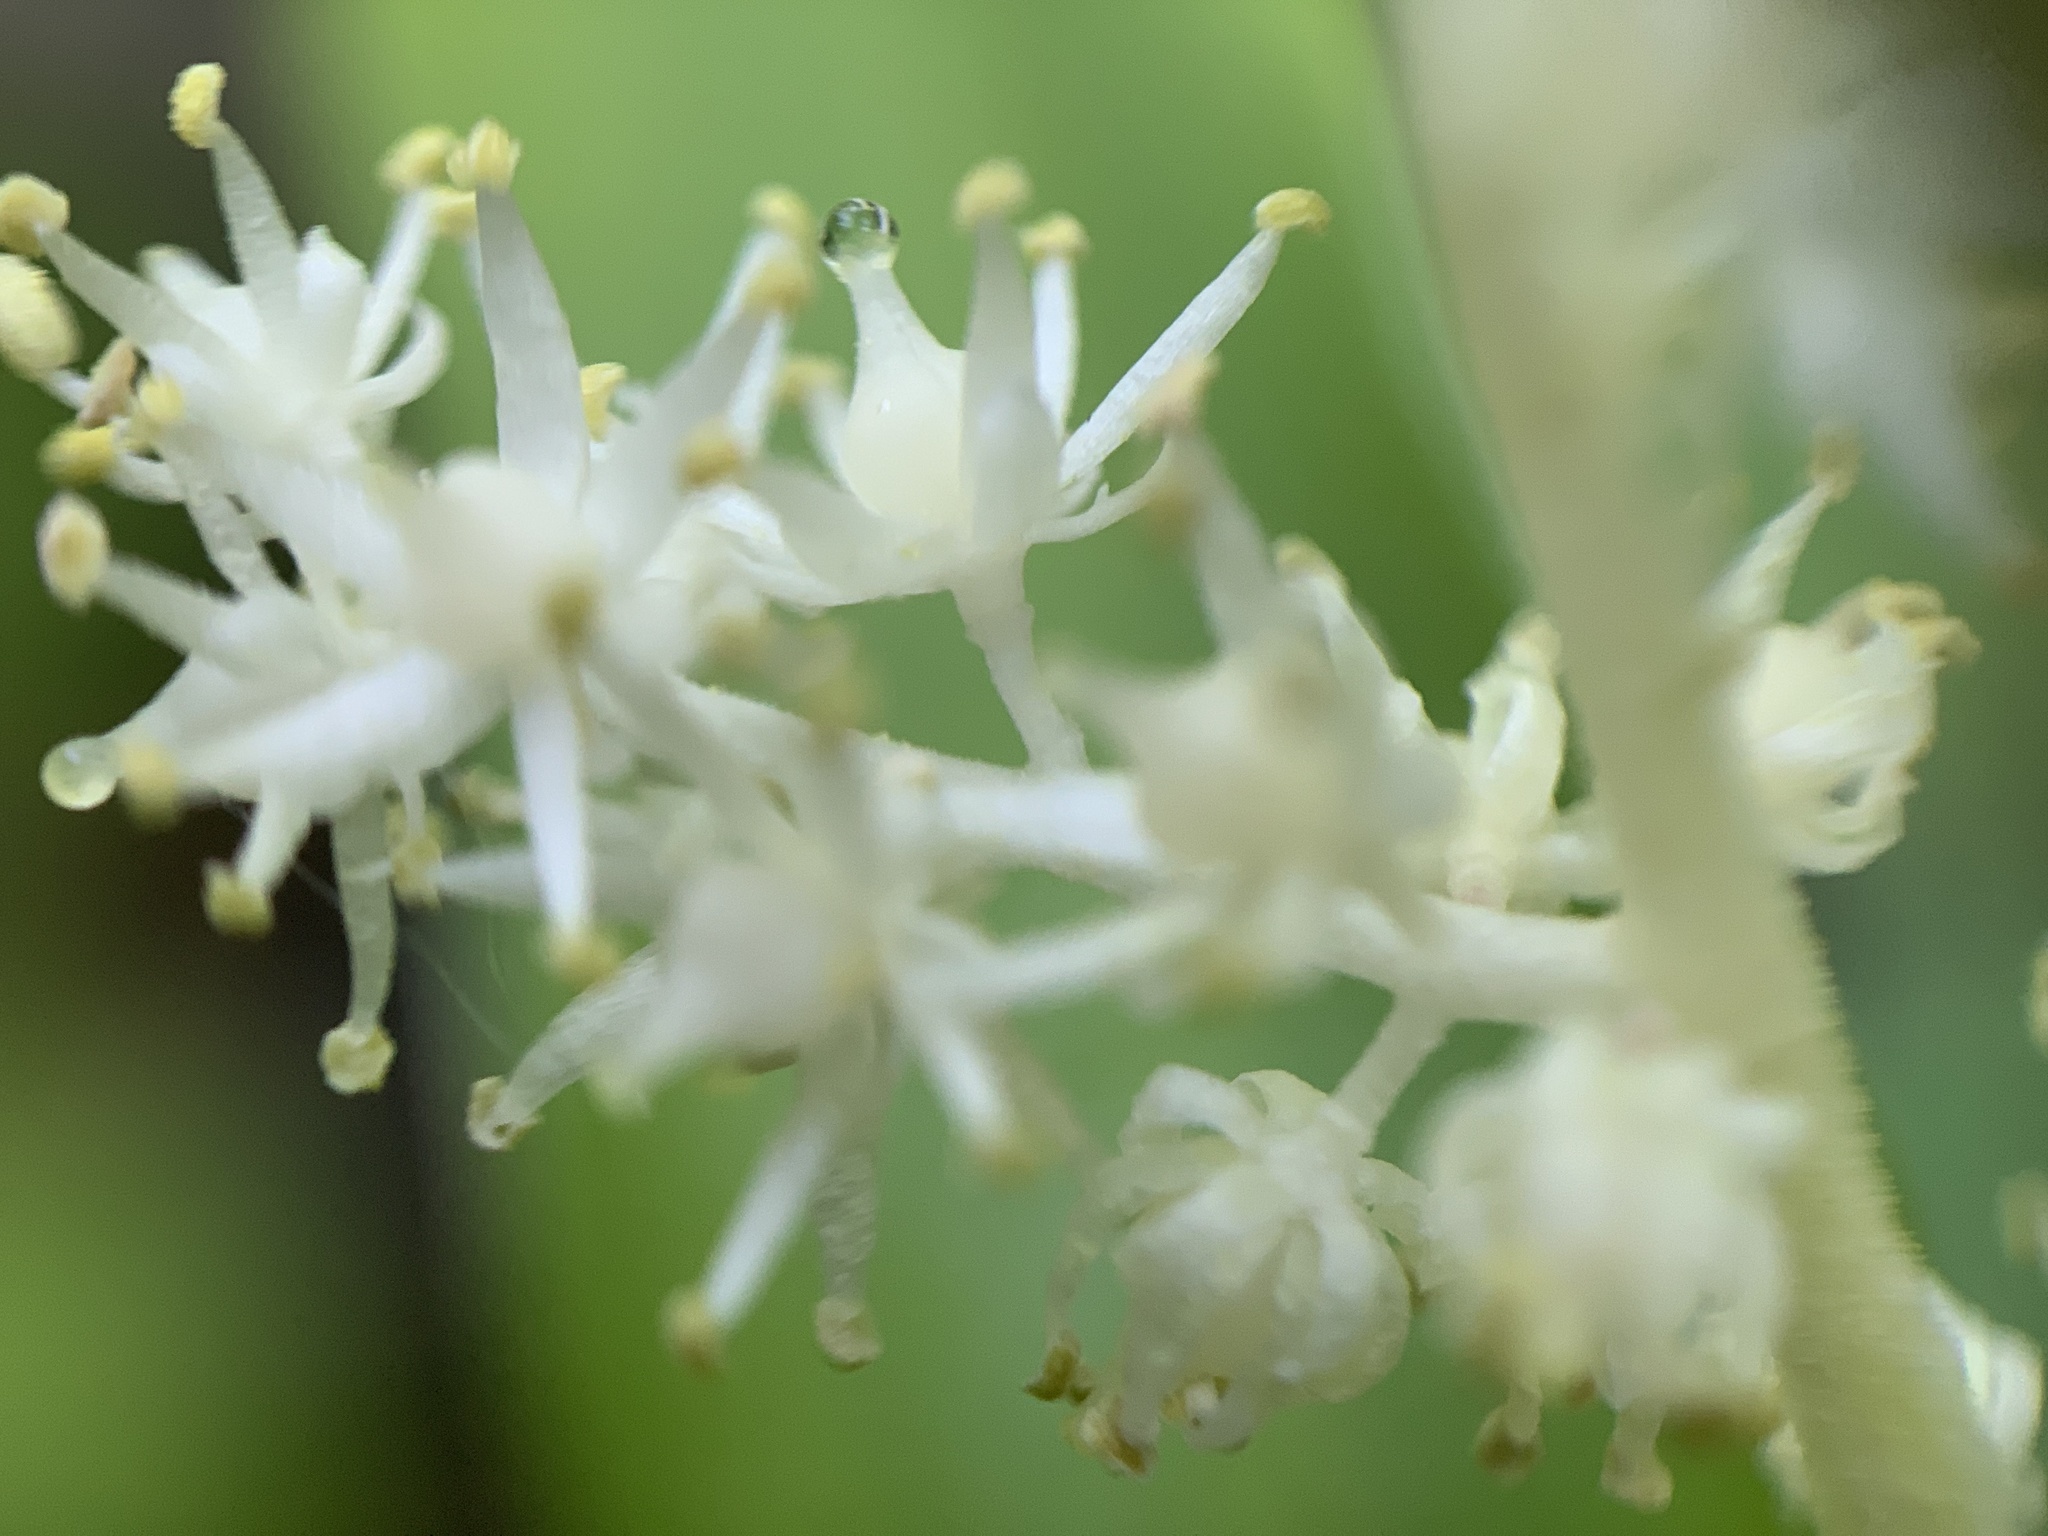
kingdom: Plantae
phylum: Tracheophyta
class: Liliopsida
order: Asparagales
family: Asparagaceae
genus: Maianthemum
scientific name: Maianthemum racemosum
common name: False spikenard
